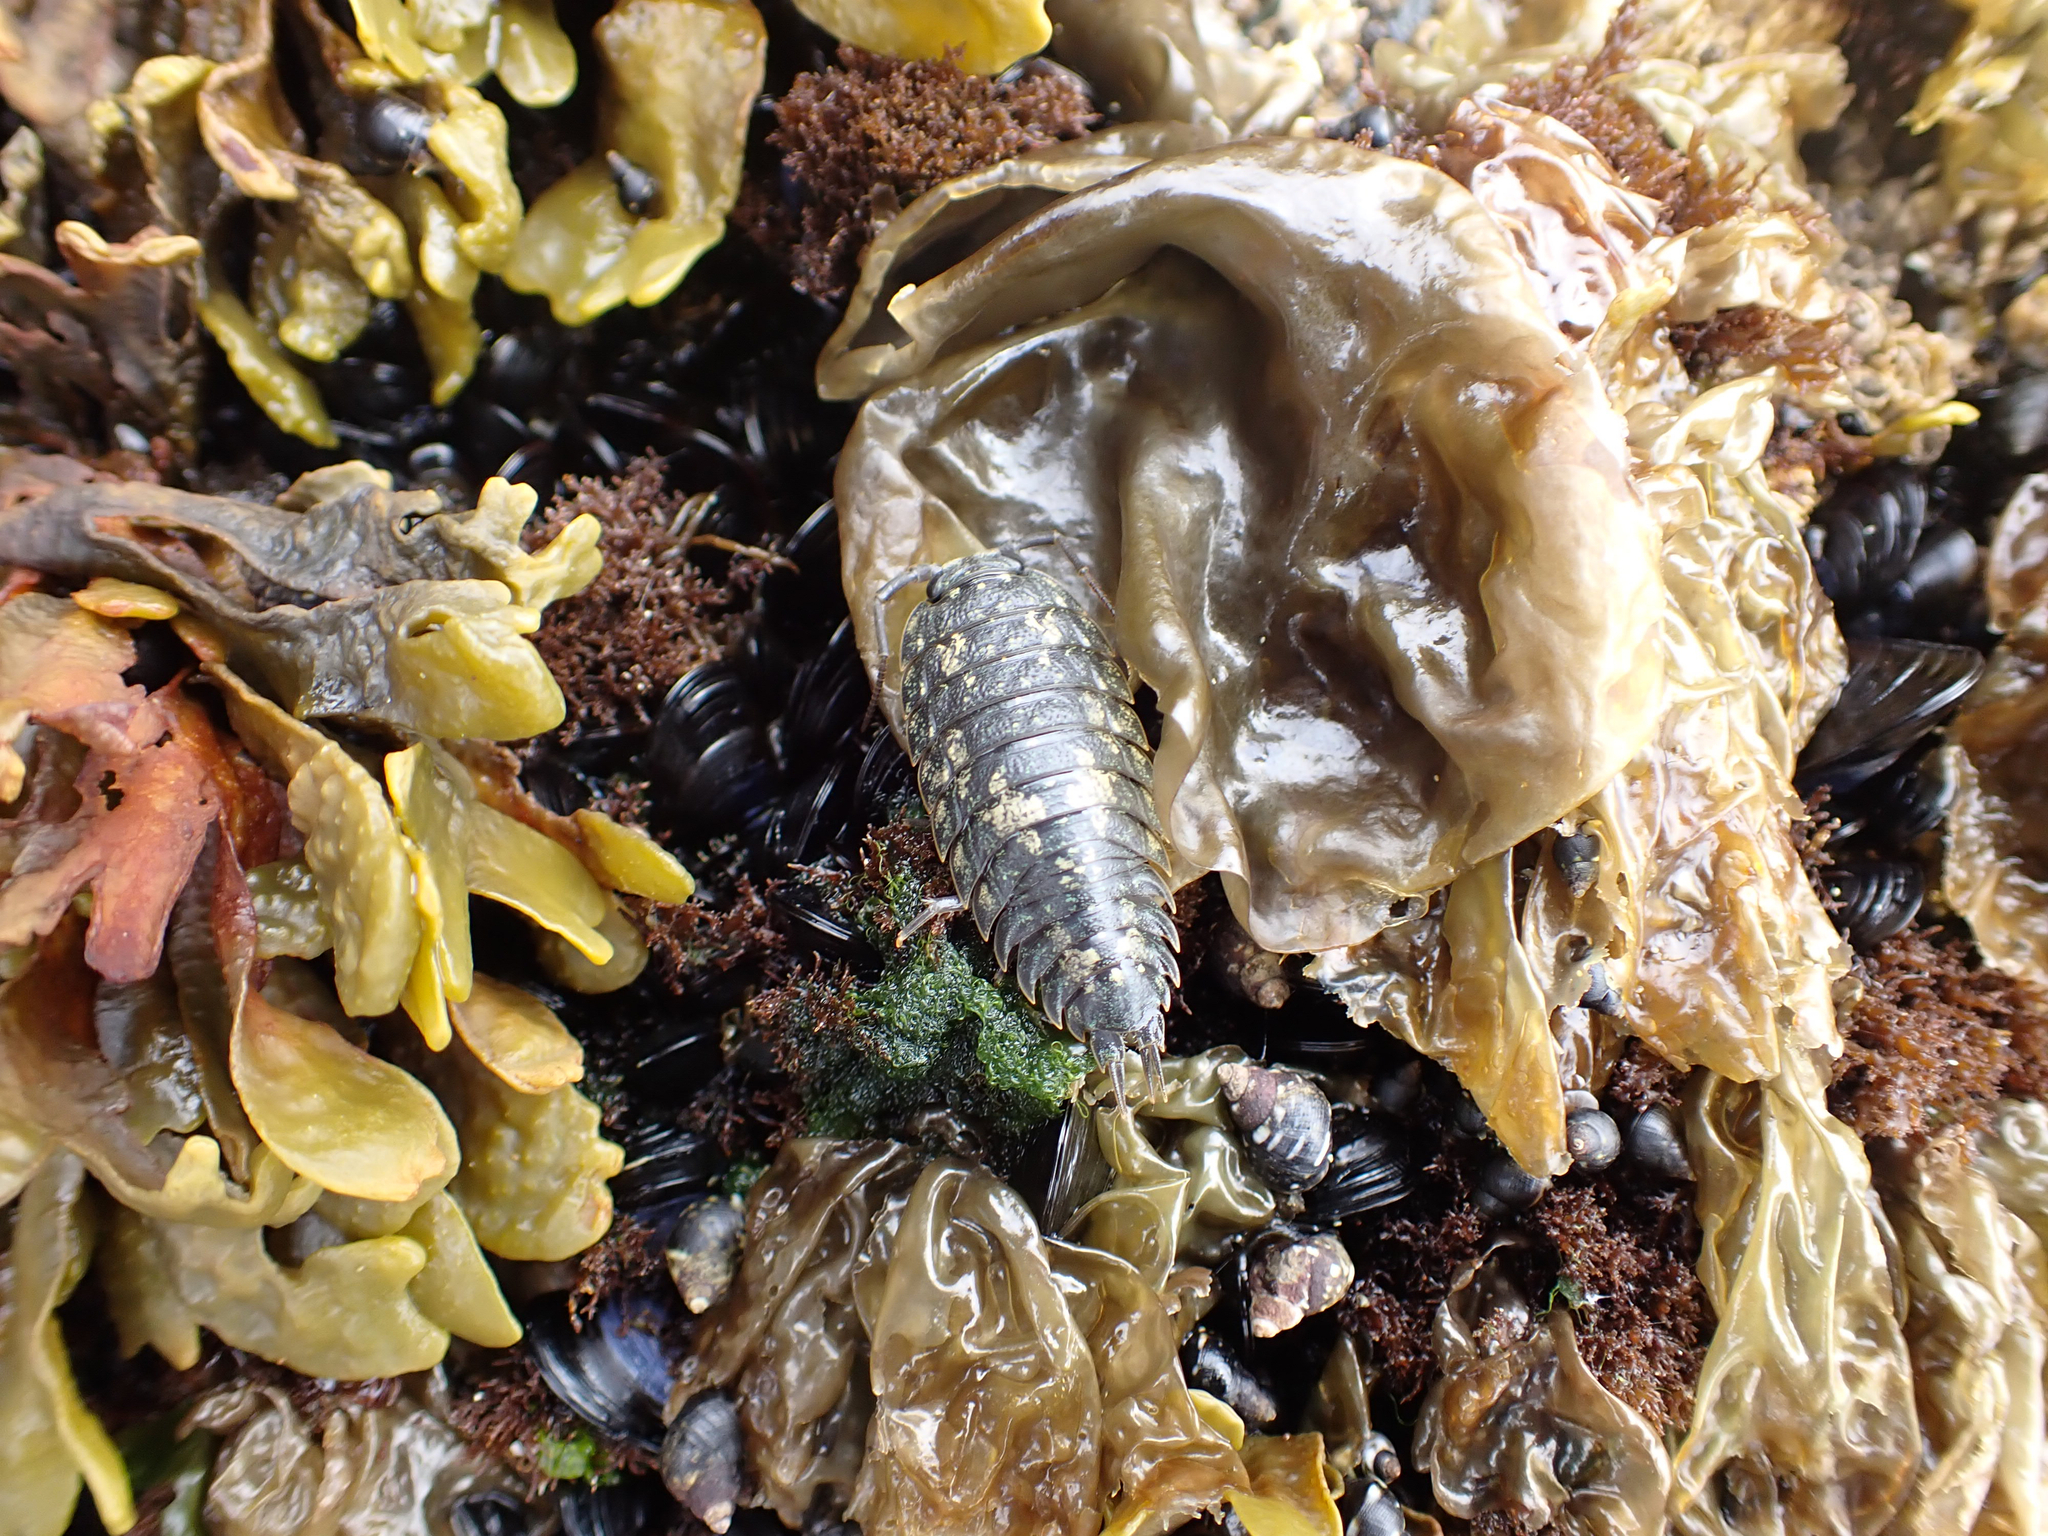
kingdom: Animalia
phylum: Arthropoda
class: Malacostraca
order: Isopoda
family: Ligiidae
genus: Ligia
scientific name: Ligia pallasii
